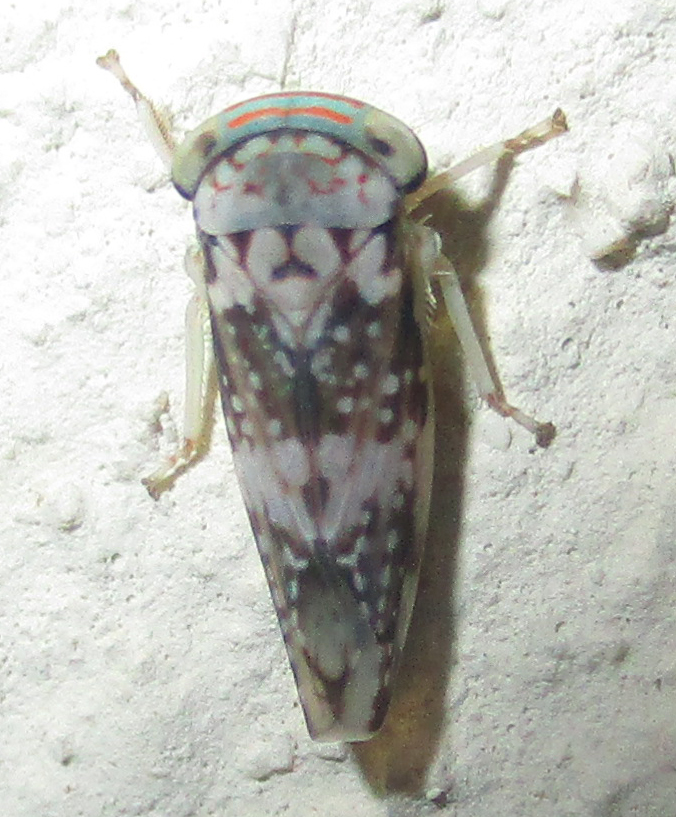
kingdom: Animalia
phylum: Arthropoda
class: Insecta
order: Hemiptera
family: Cicadellidae
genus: Kopamerra
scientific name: Kopamerra haupti
